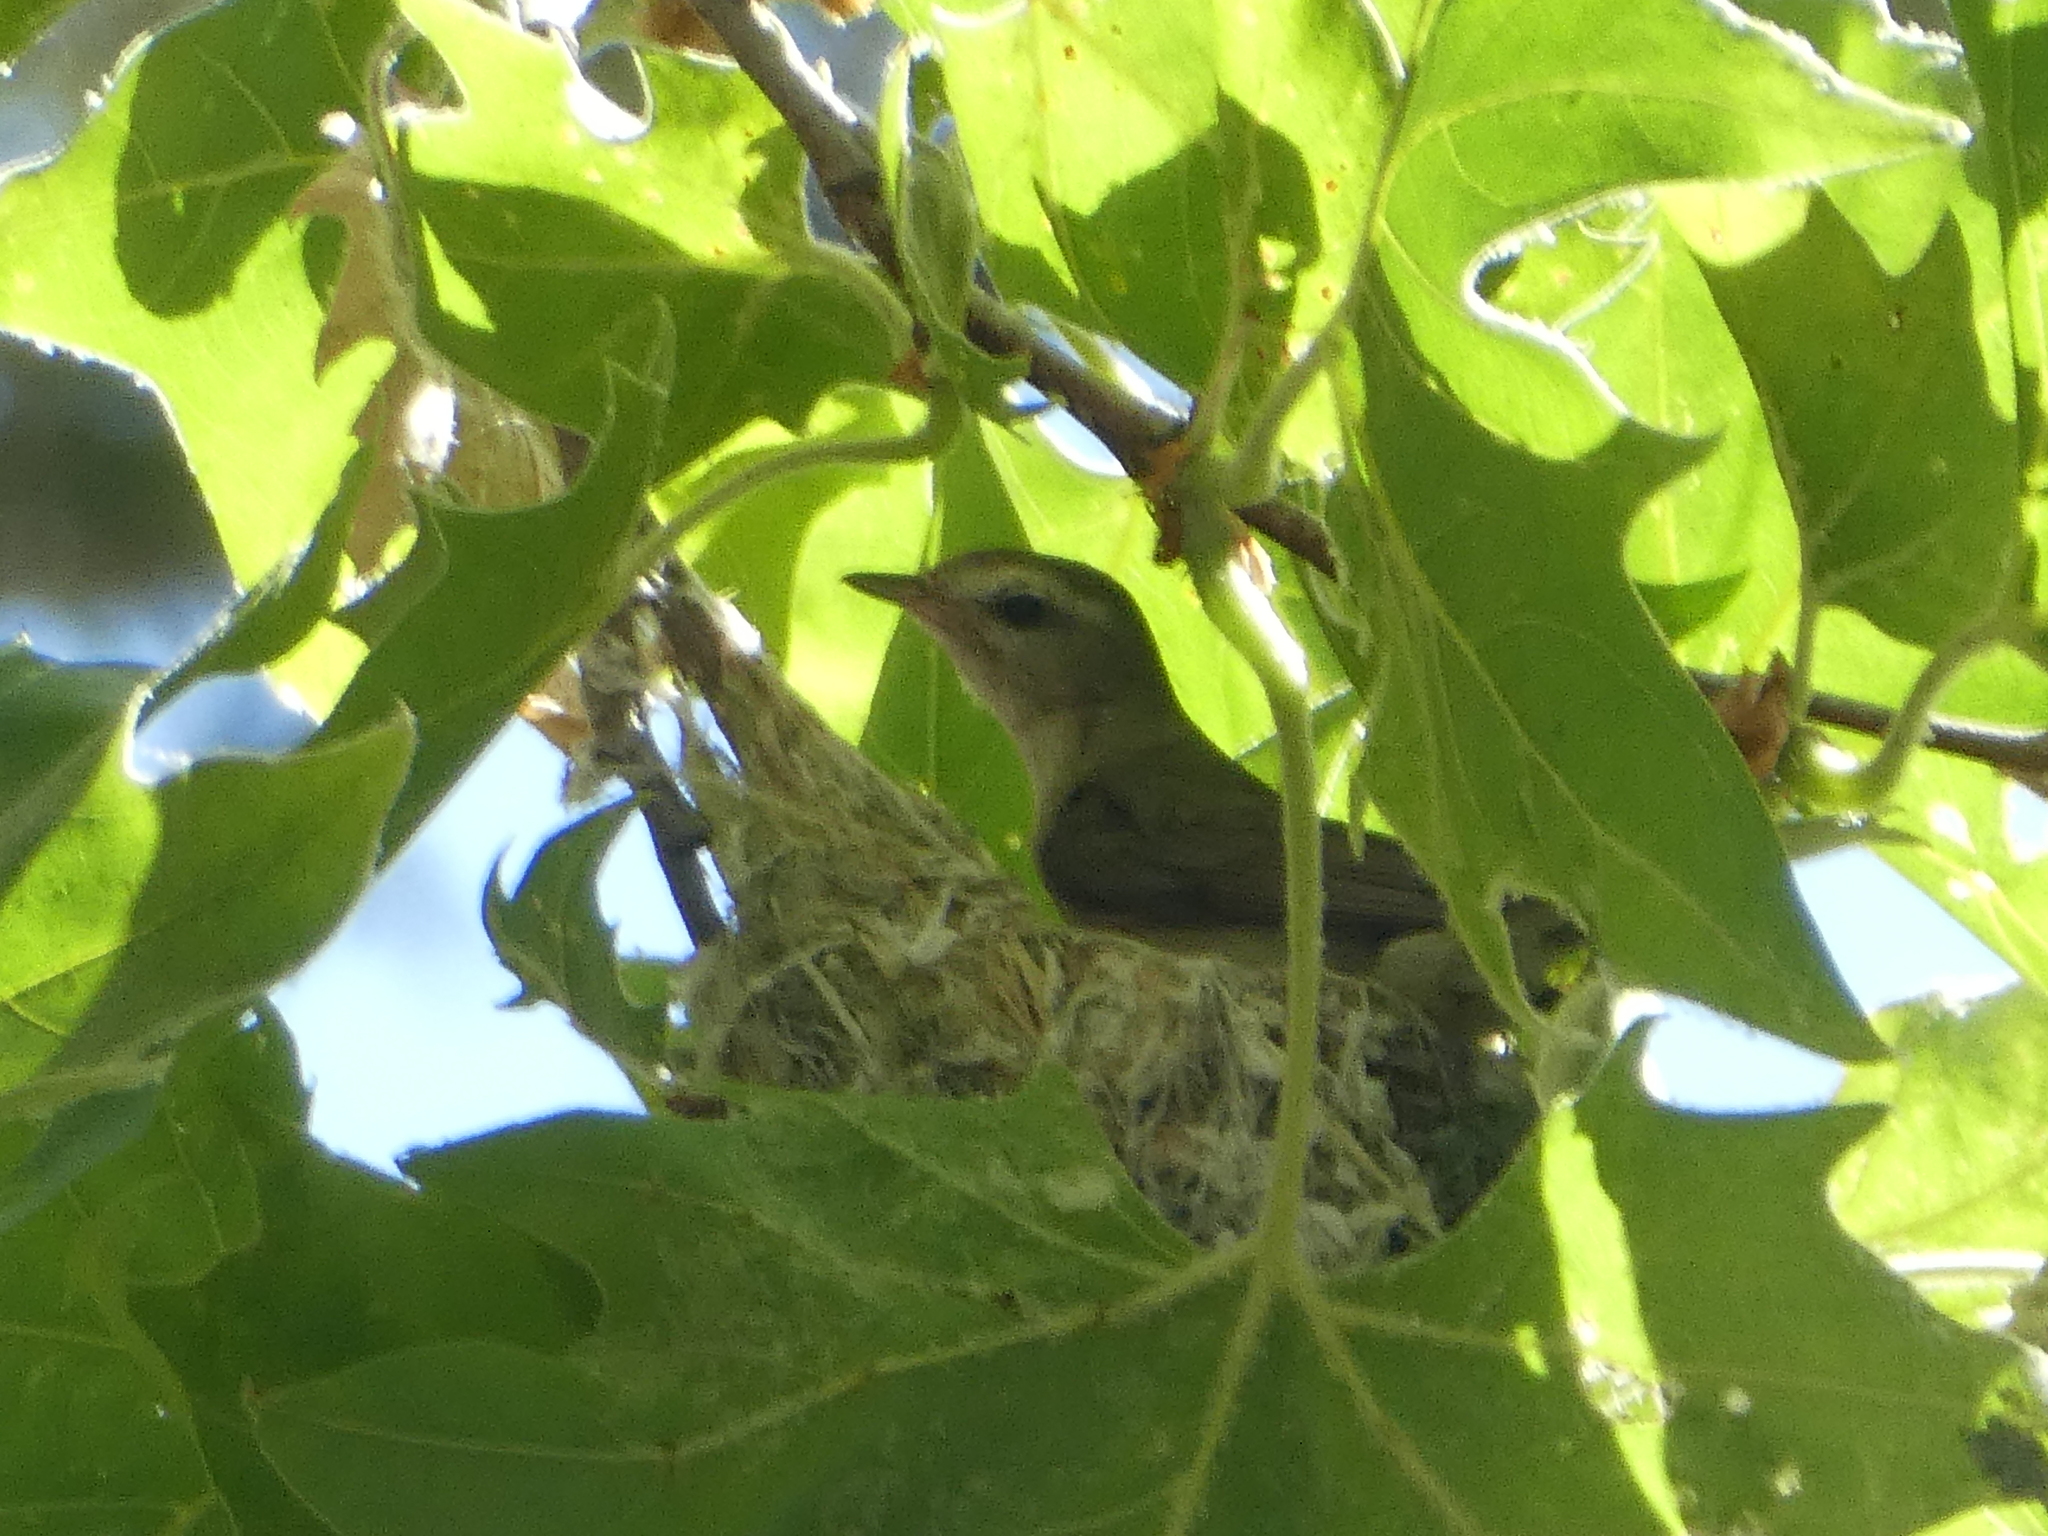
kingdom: Animalia
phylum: Chordata
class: Aves
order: Passeriformes
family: Vireonidae
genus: Vireo
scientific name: Vireo gilvus
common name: Warbling vireo
